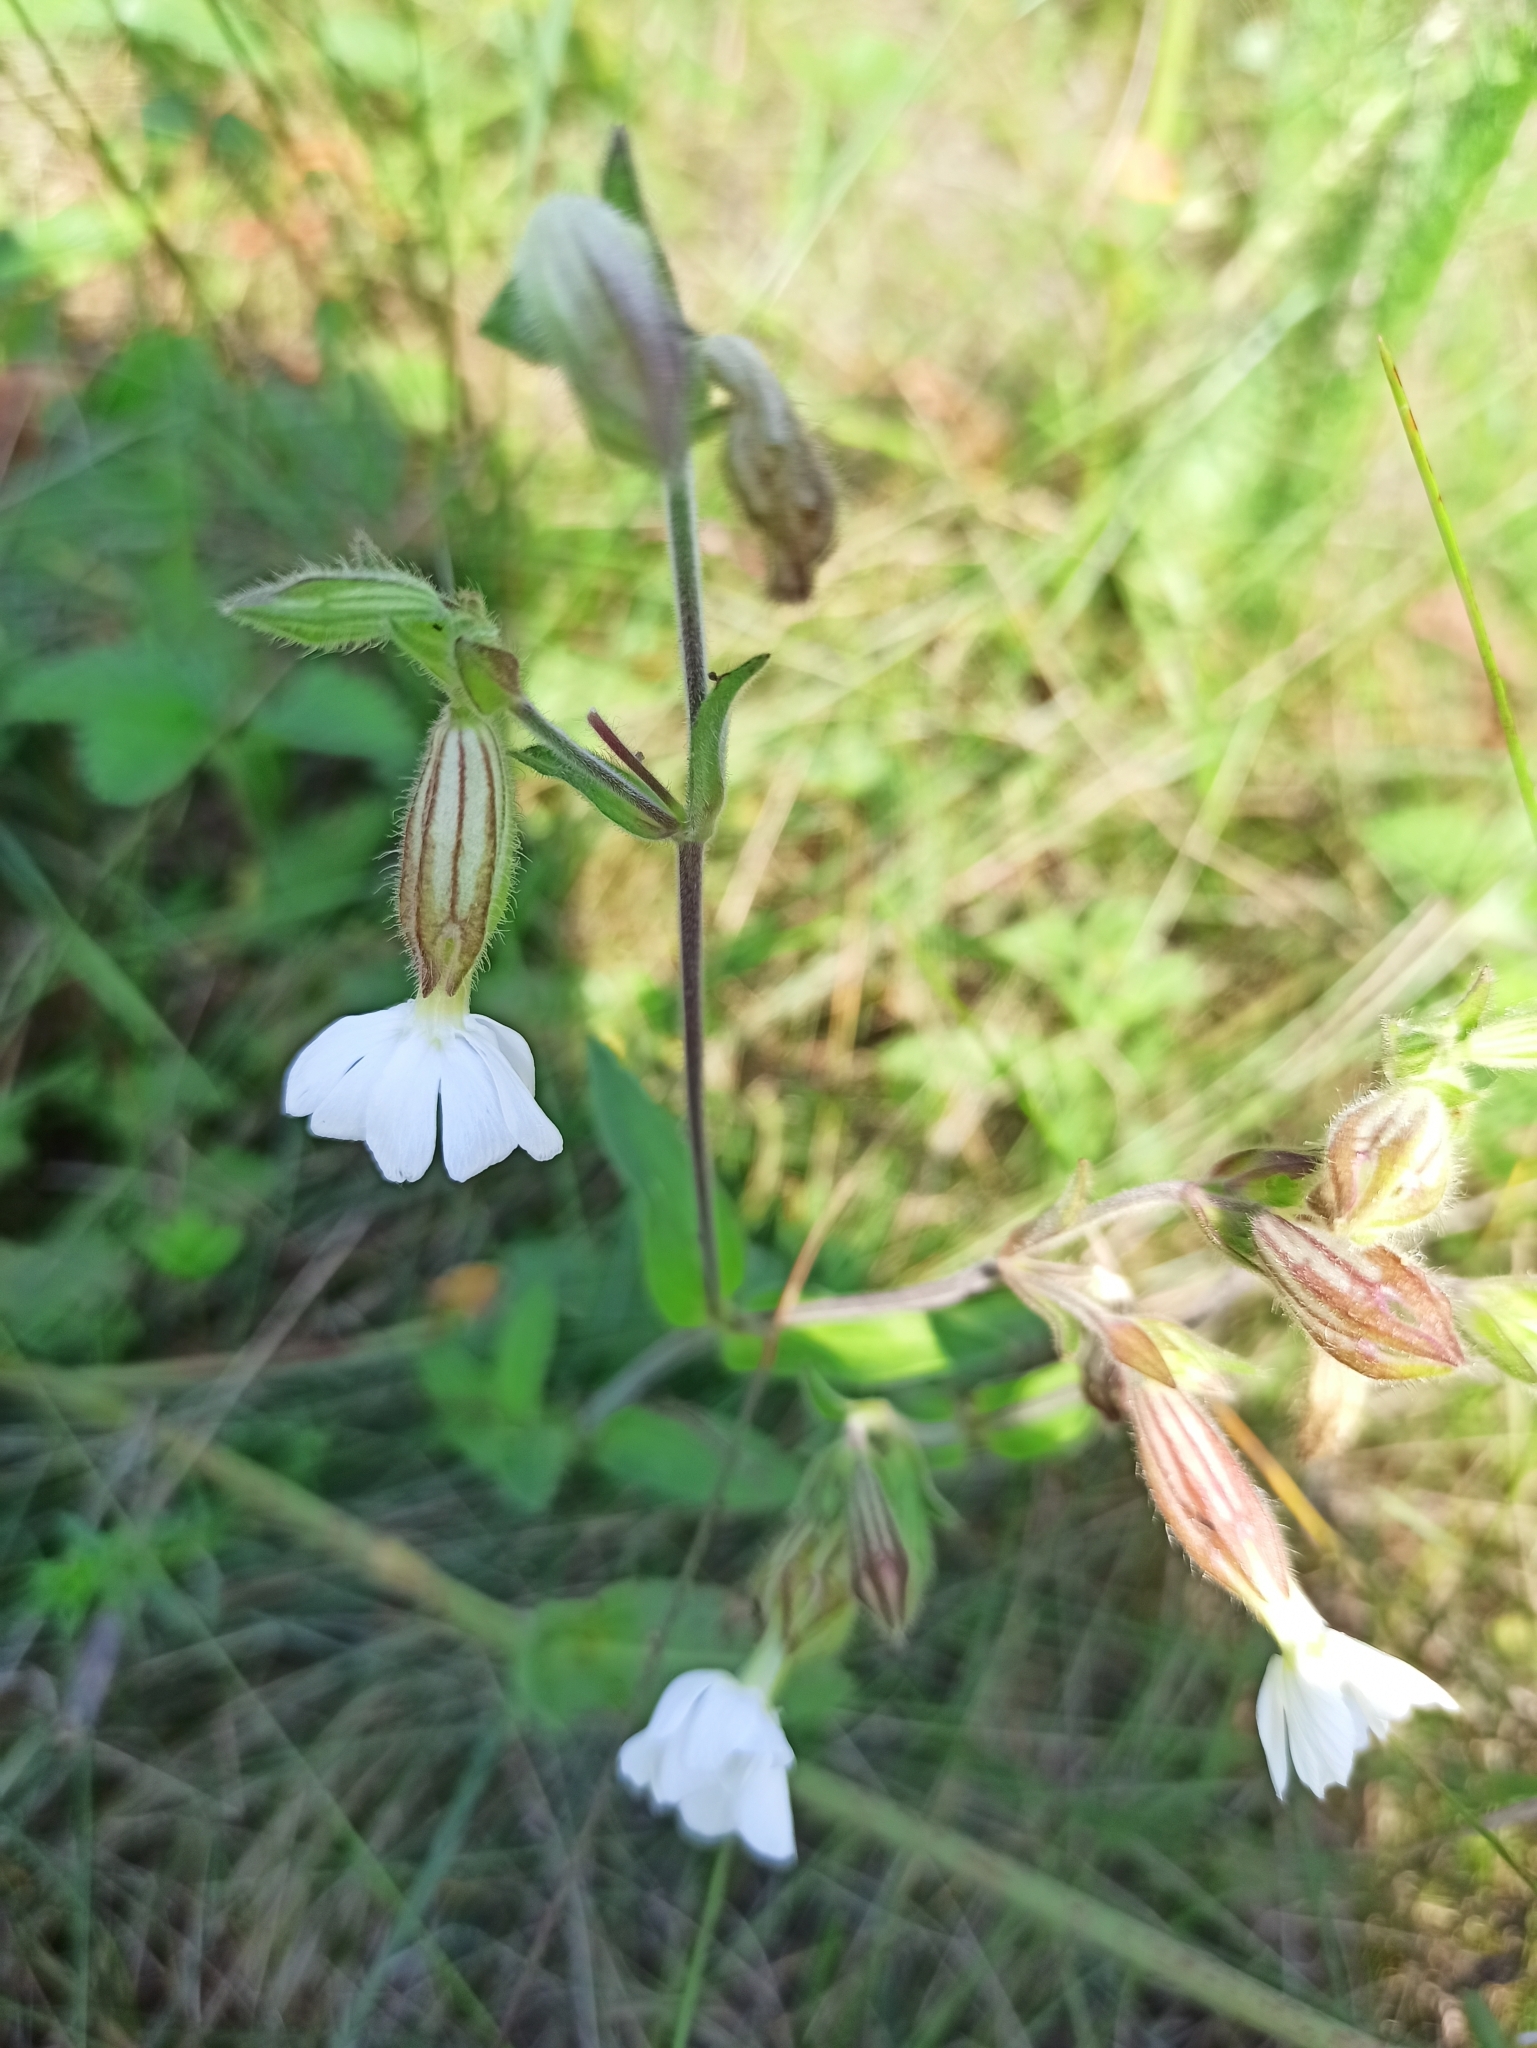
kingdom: Plantae
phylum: Tracheophyta
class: Magnoliopsida
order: Caryophyllales
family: Caryophyllaceae
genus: Silene
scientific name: Silene latifolia
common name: White campion
